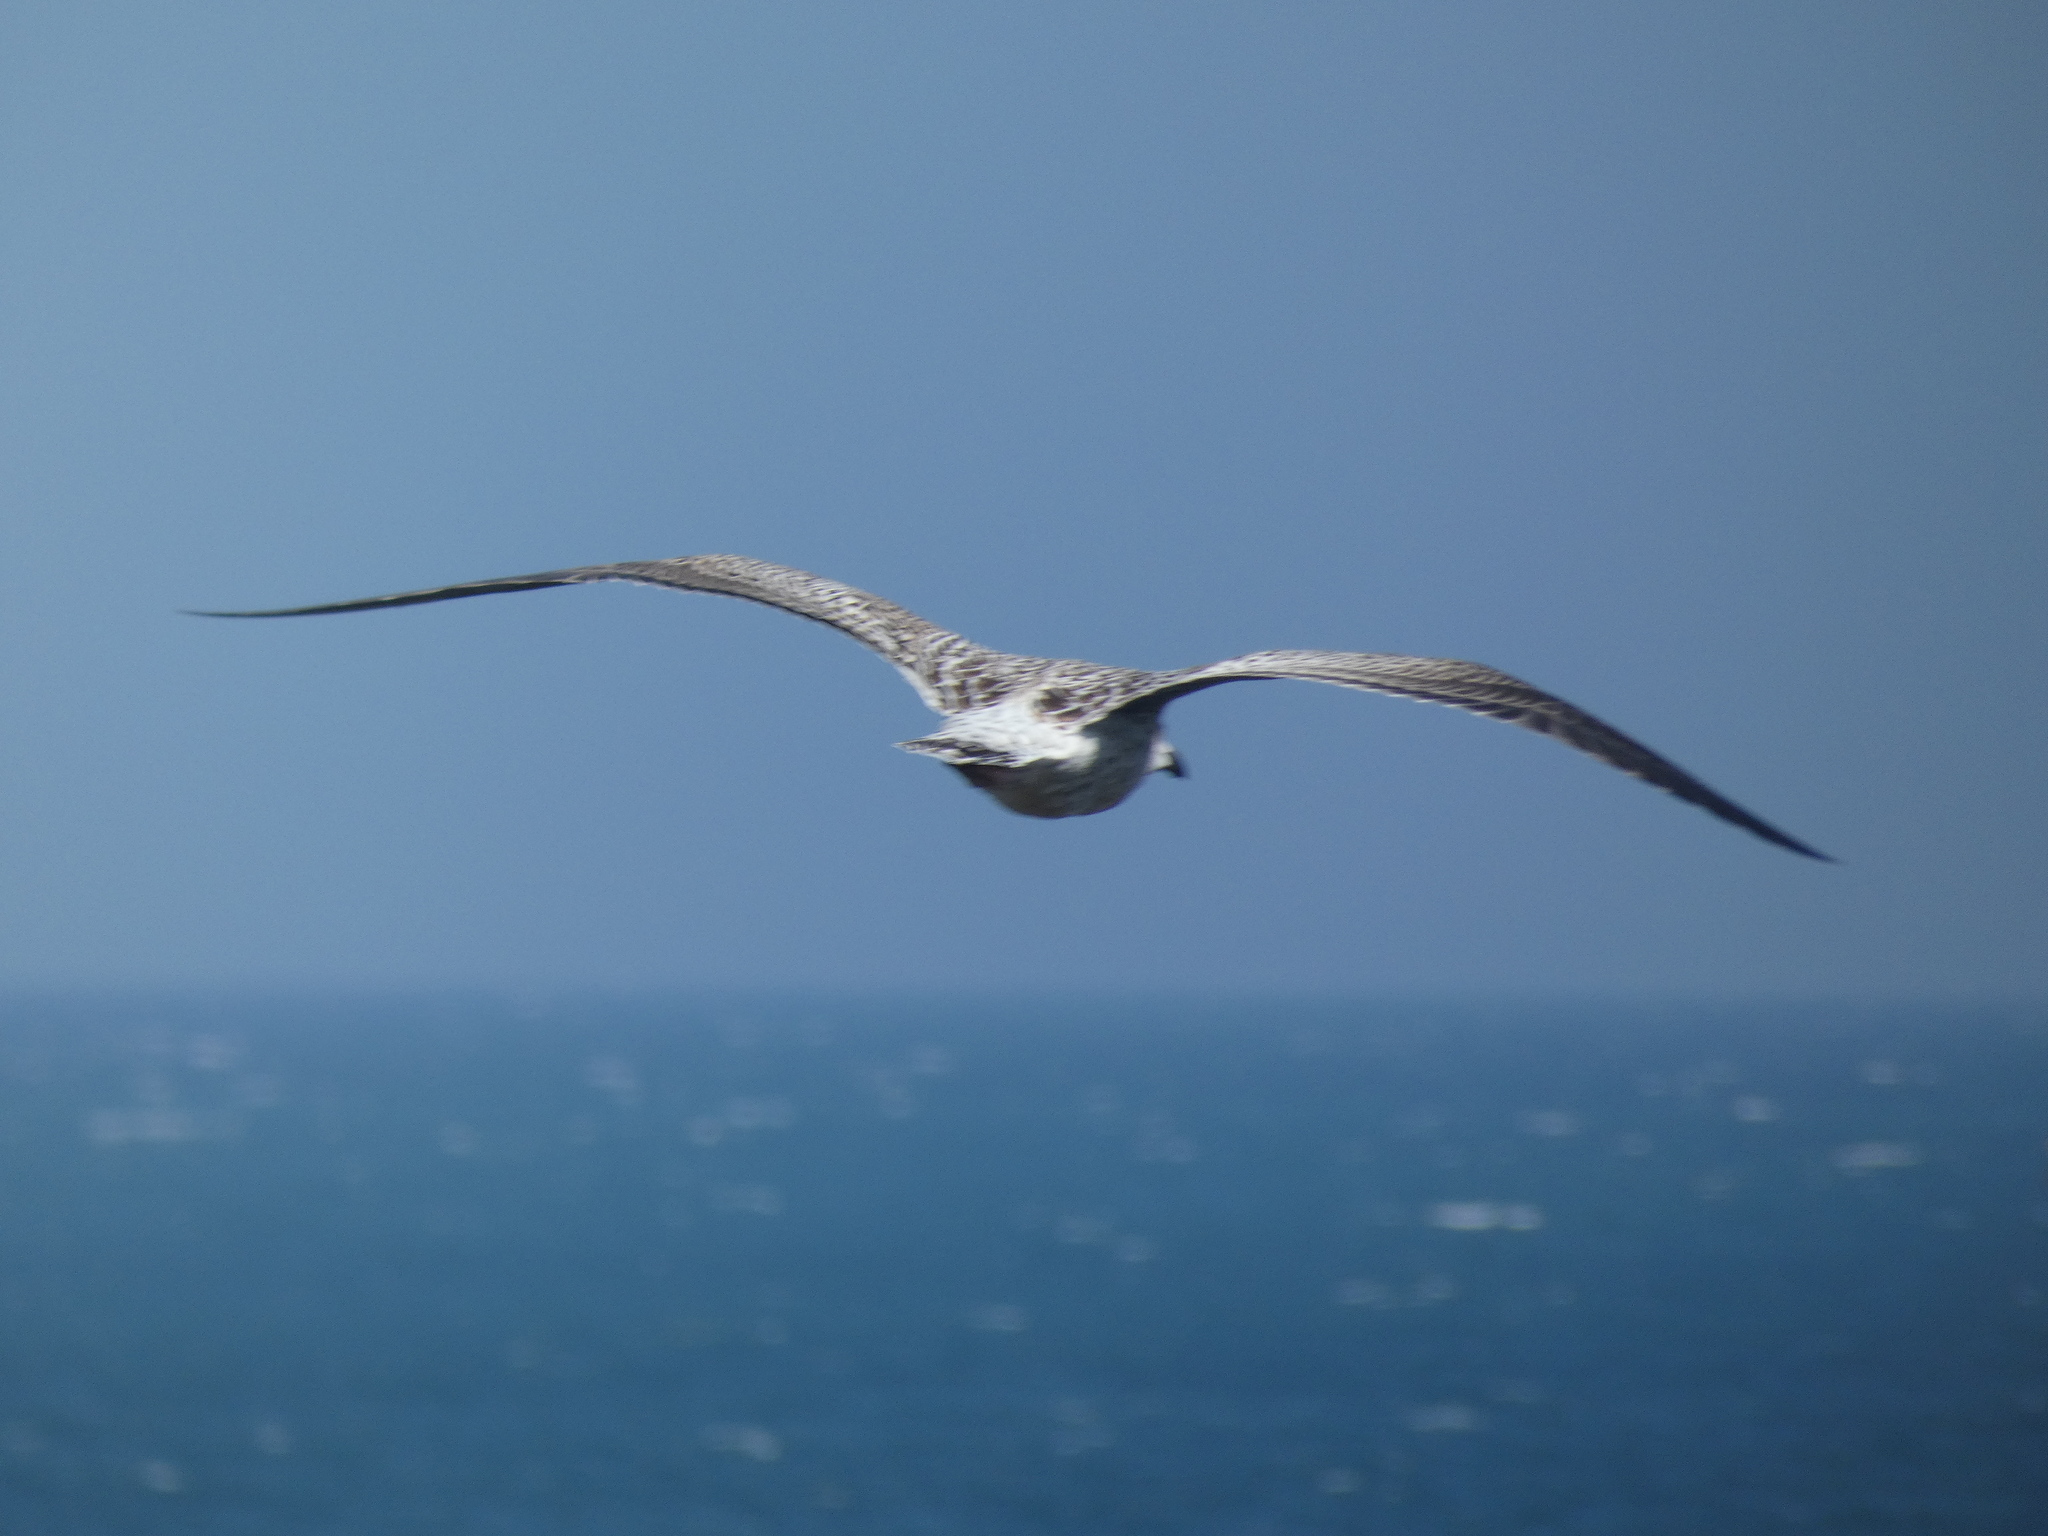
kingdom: Animalia
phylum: Chordata
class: Aves
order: Charadriiformes
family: Laridae
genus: Larus
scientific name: Larus marinus
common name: Great black-backed gull
